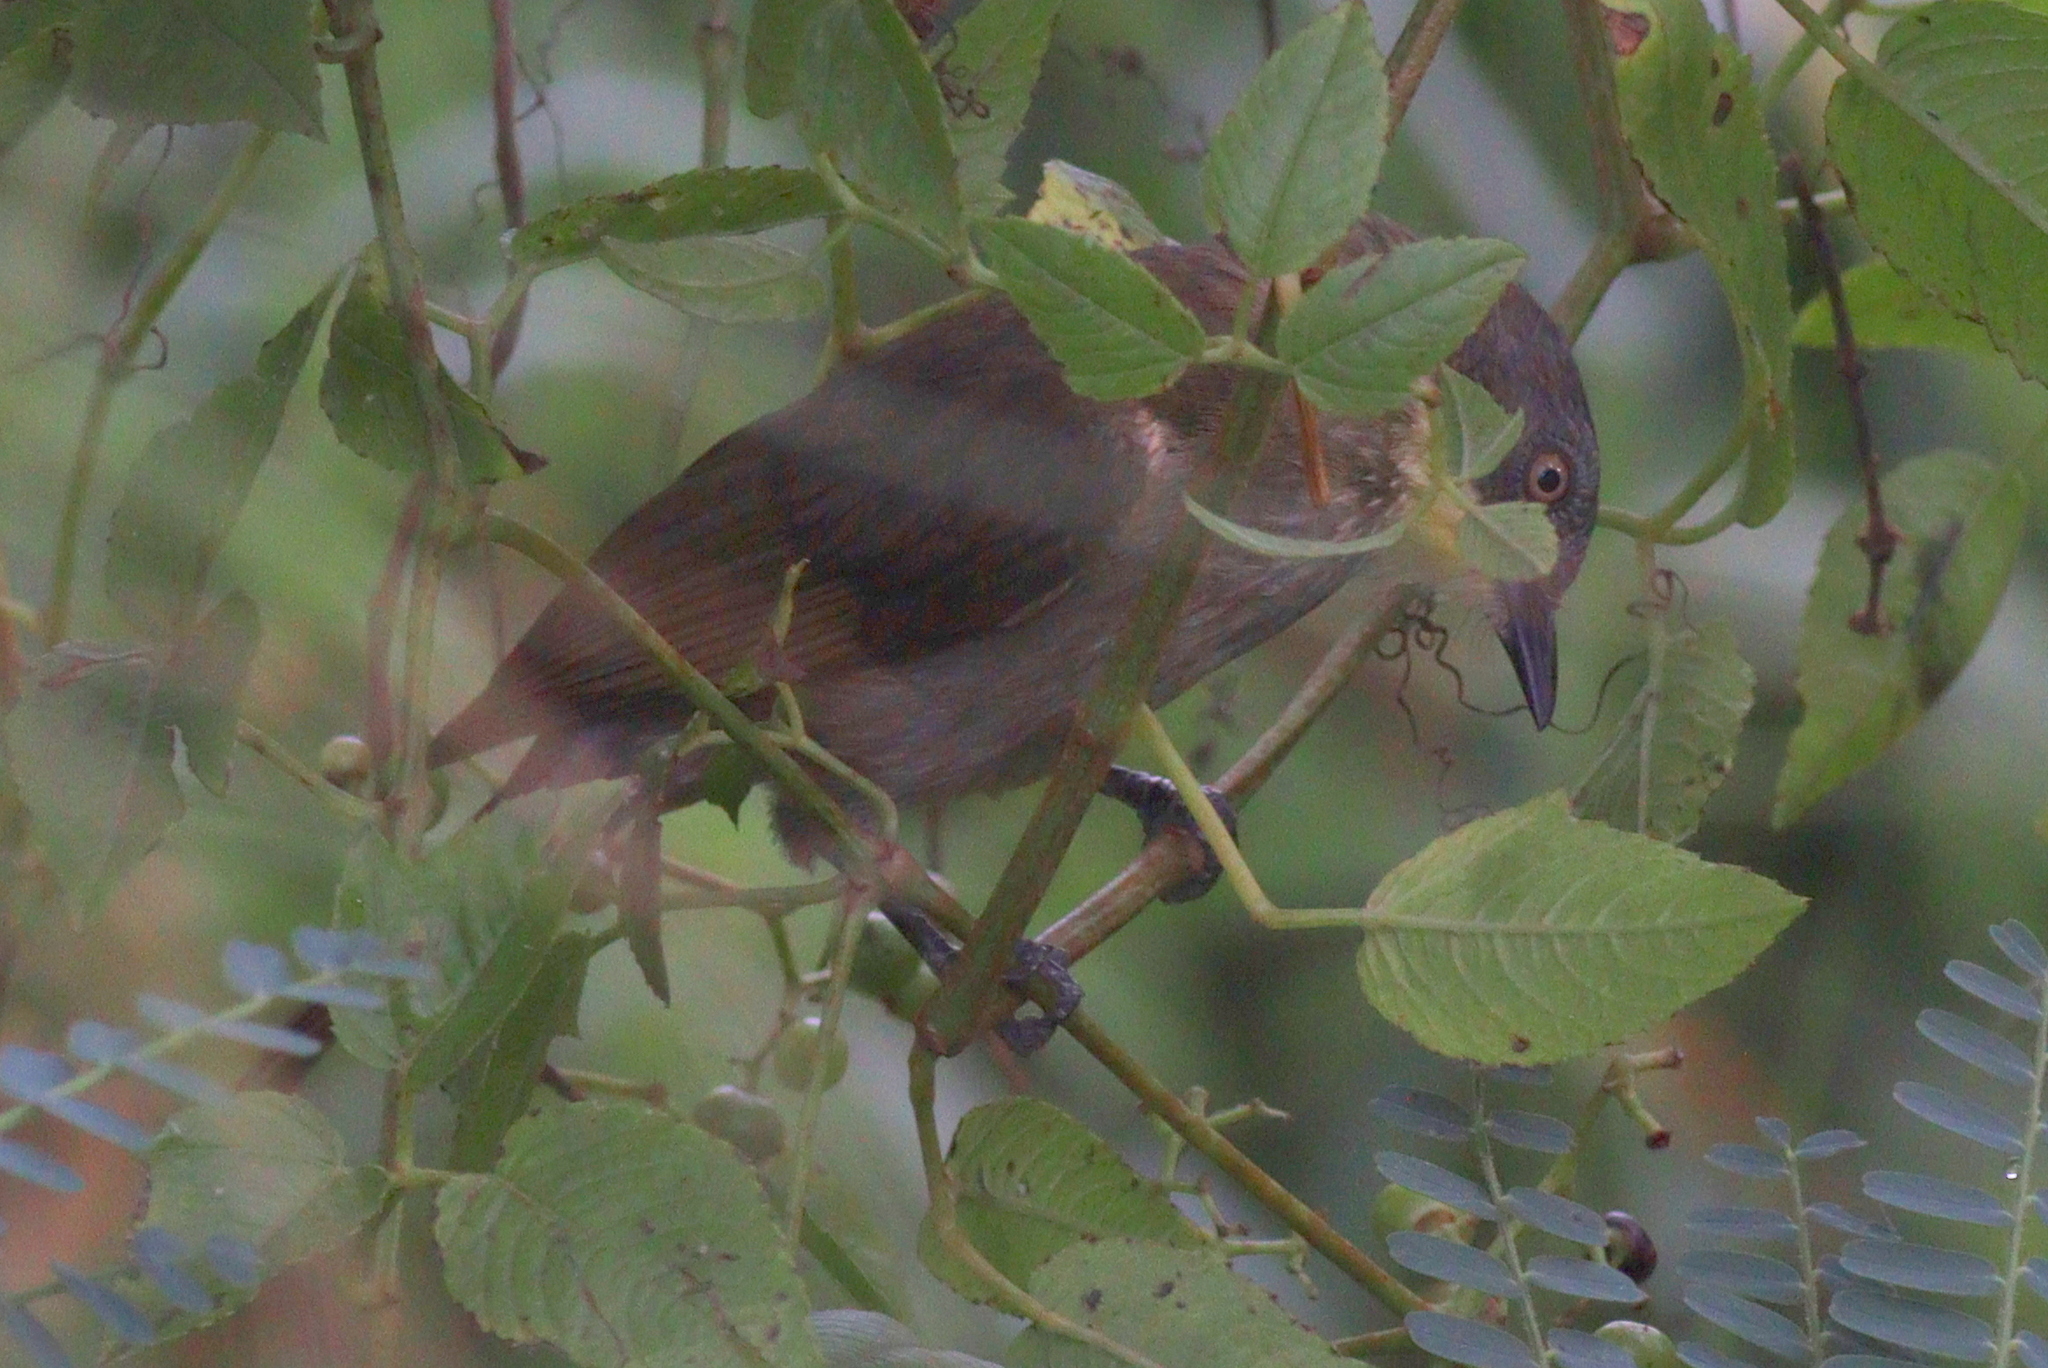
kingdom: Animalia
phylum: Chordata
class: Aves
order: Passeriformes
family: Pycnonotidae
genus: Atimastillas
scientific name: Atimastillas flavicollis
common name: Yellow-throated leaflove
